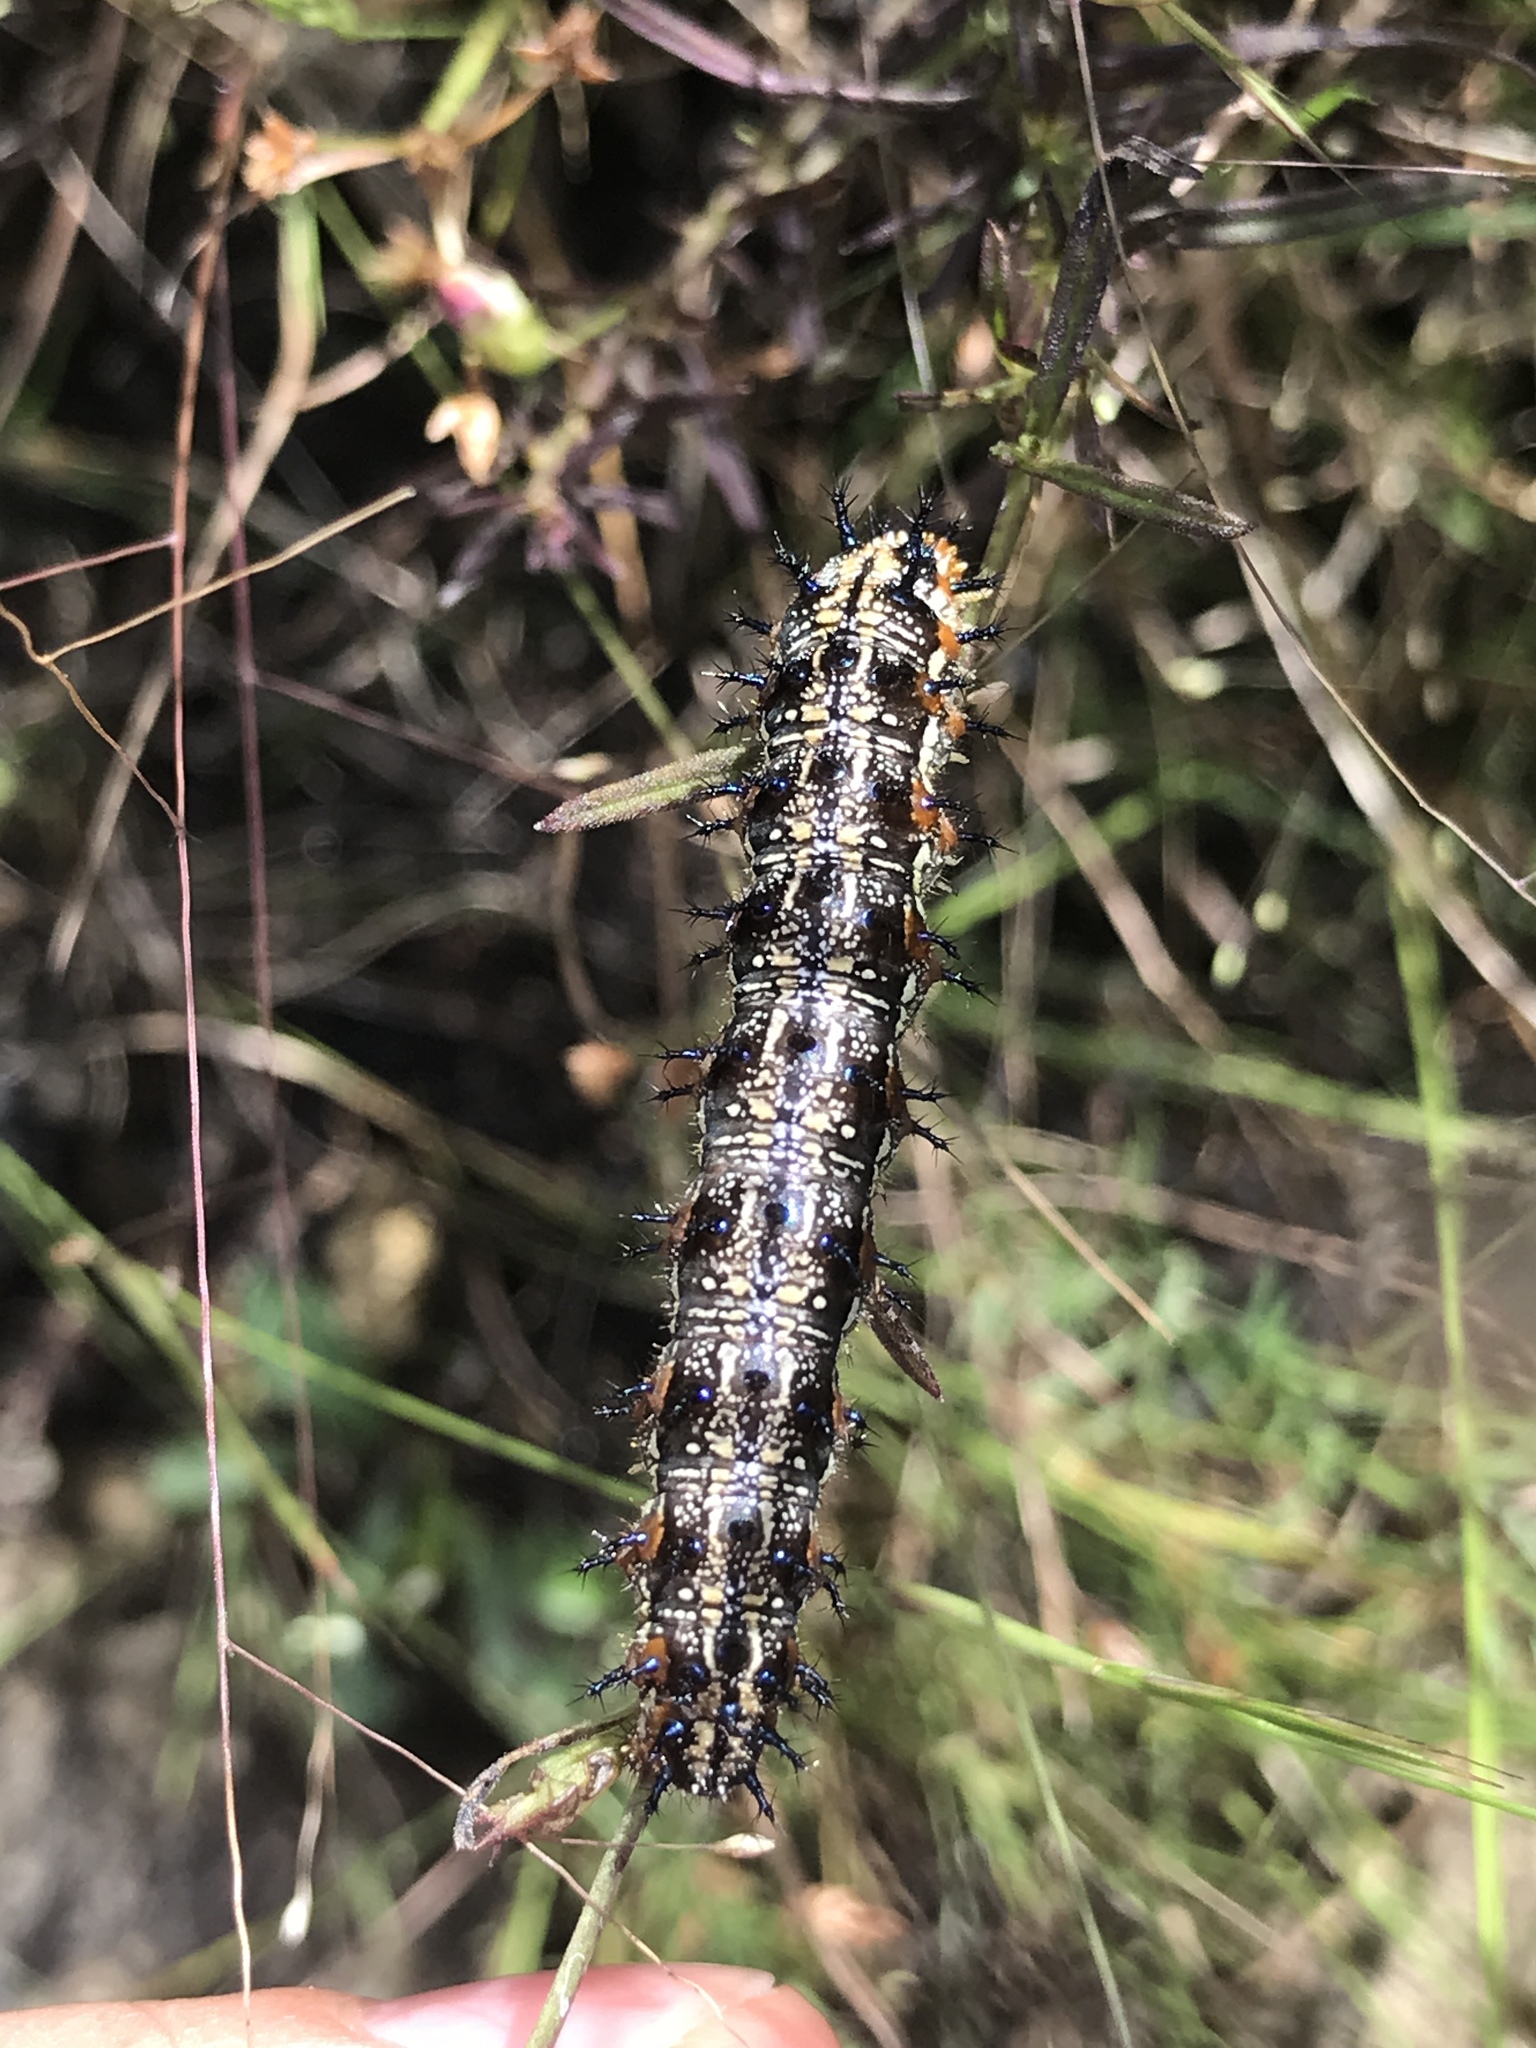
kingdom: Animalia
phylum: Arthropoda
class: Insecta
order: Lepidoptera
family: Nymphalidae
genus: Junonia
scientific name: Junonia coenia
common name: Common buckeye
